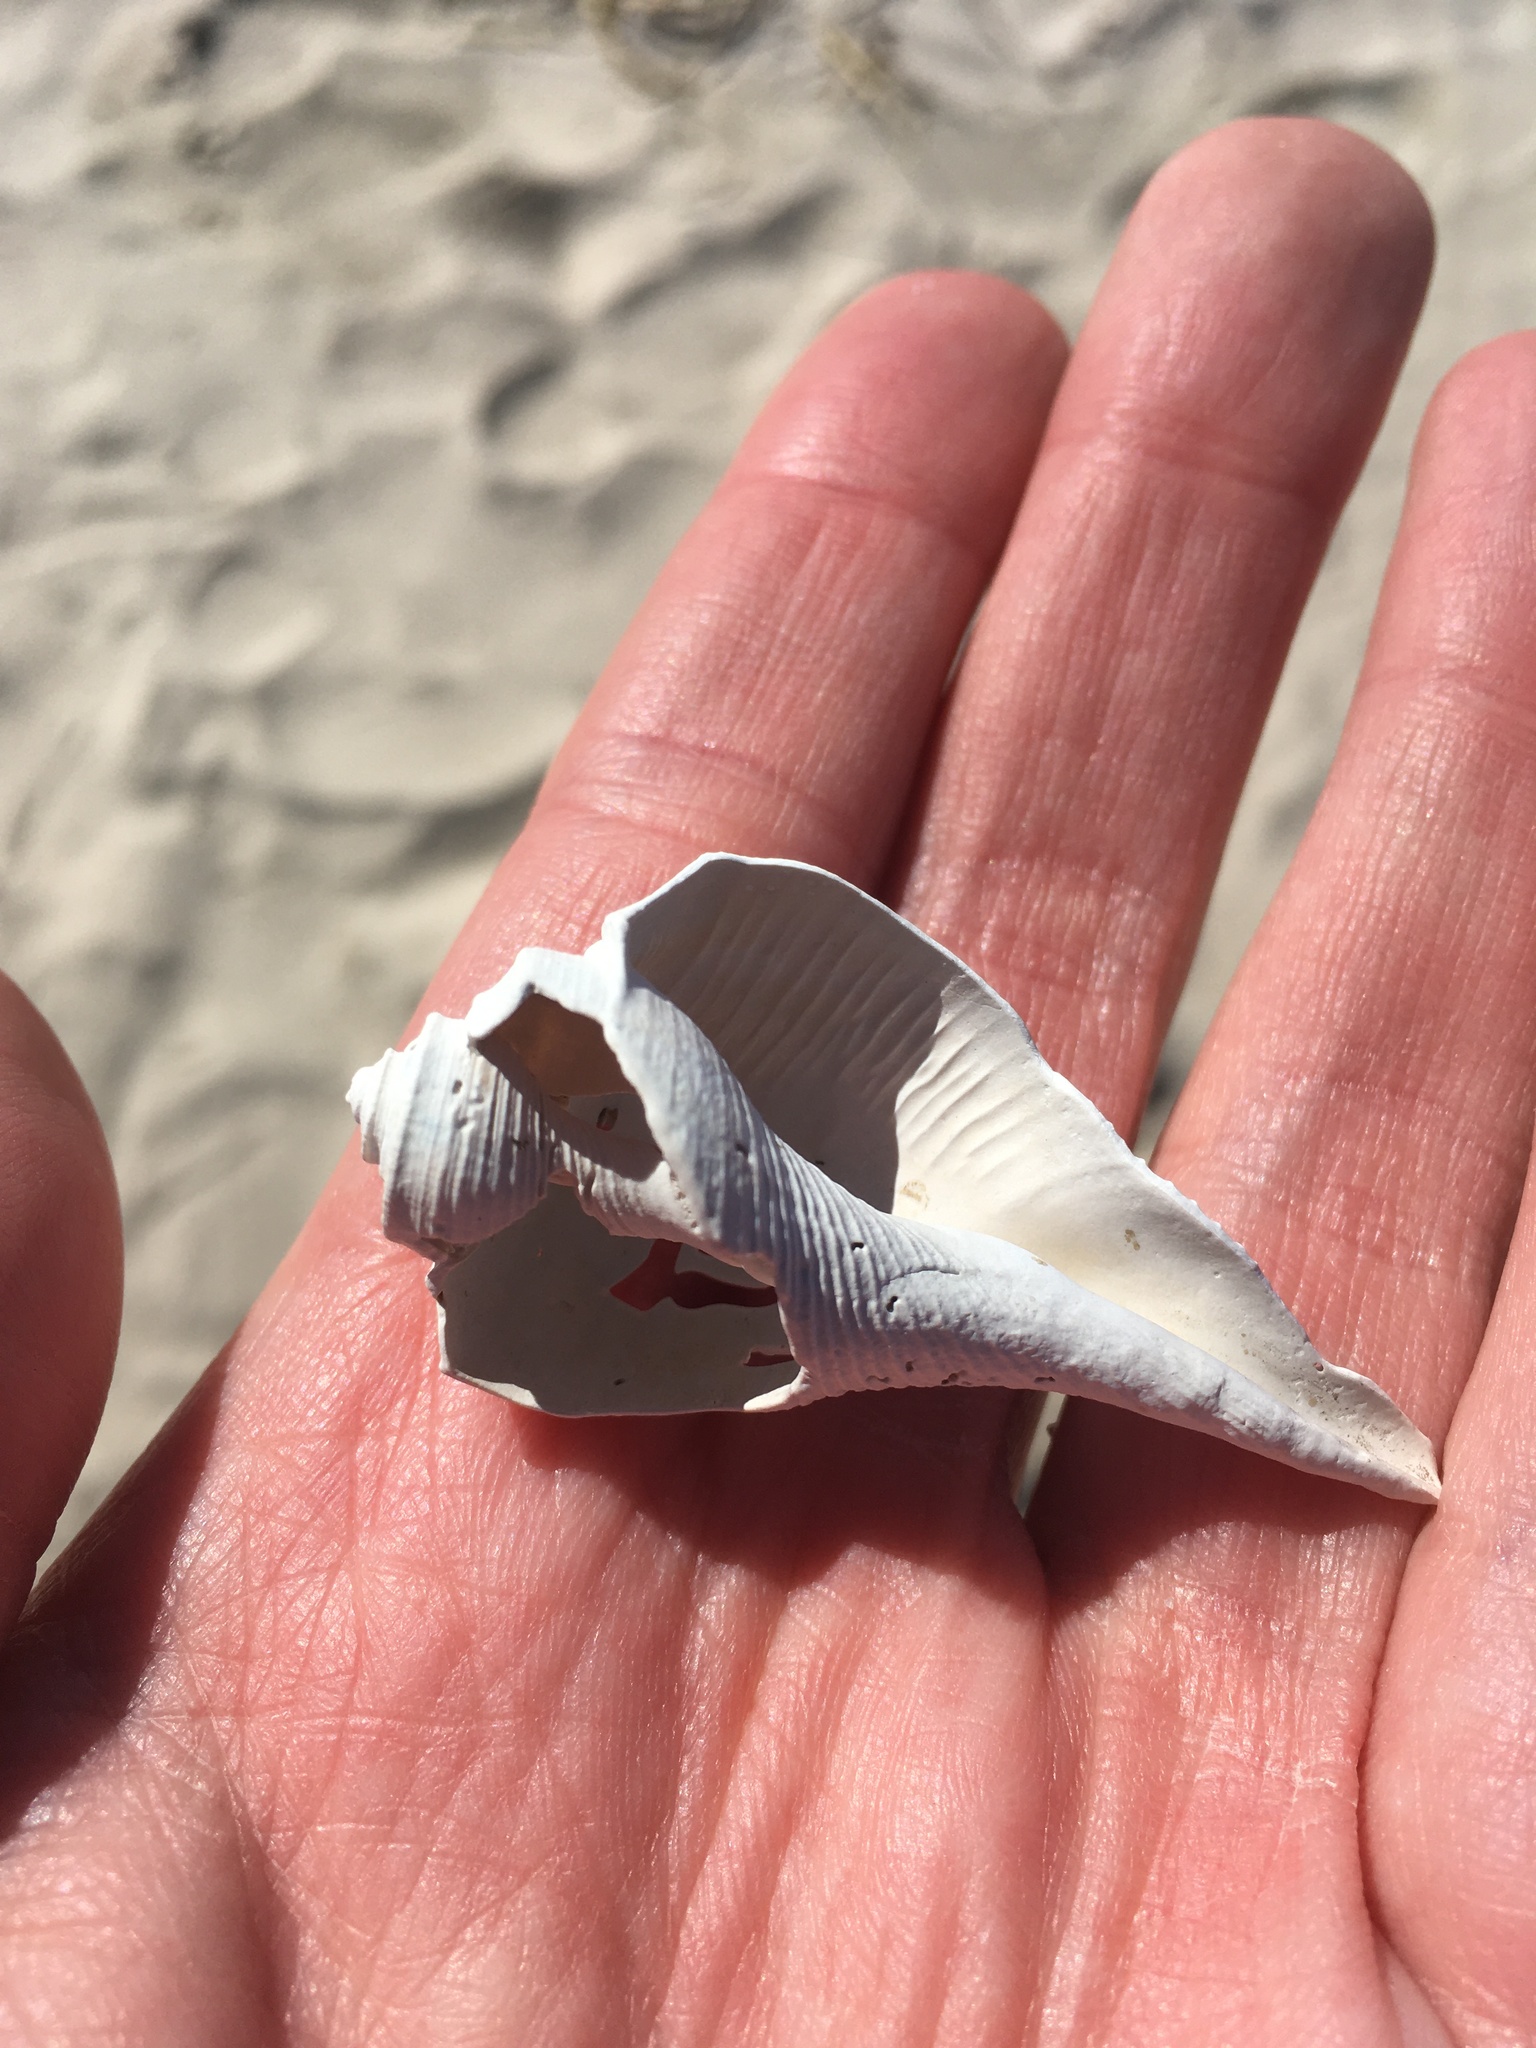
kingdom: Animalia
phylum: Mollusca
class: Gastropoda
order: Neogastropoda
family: Busyconidae
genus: Fulguropsis
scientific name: Fulguropsis pyruloides
